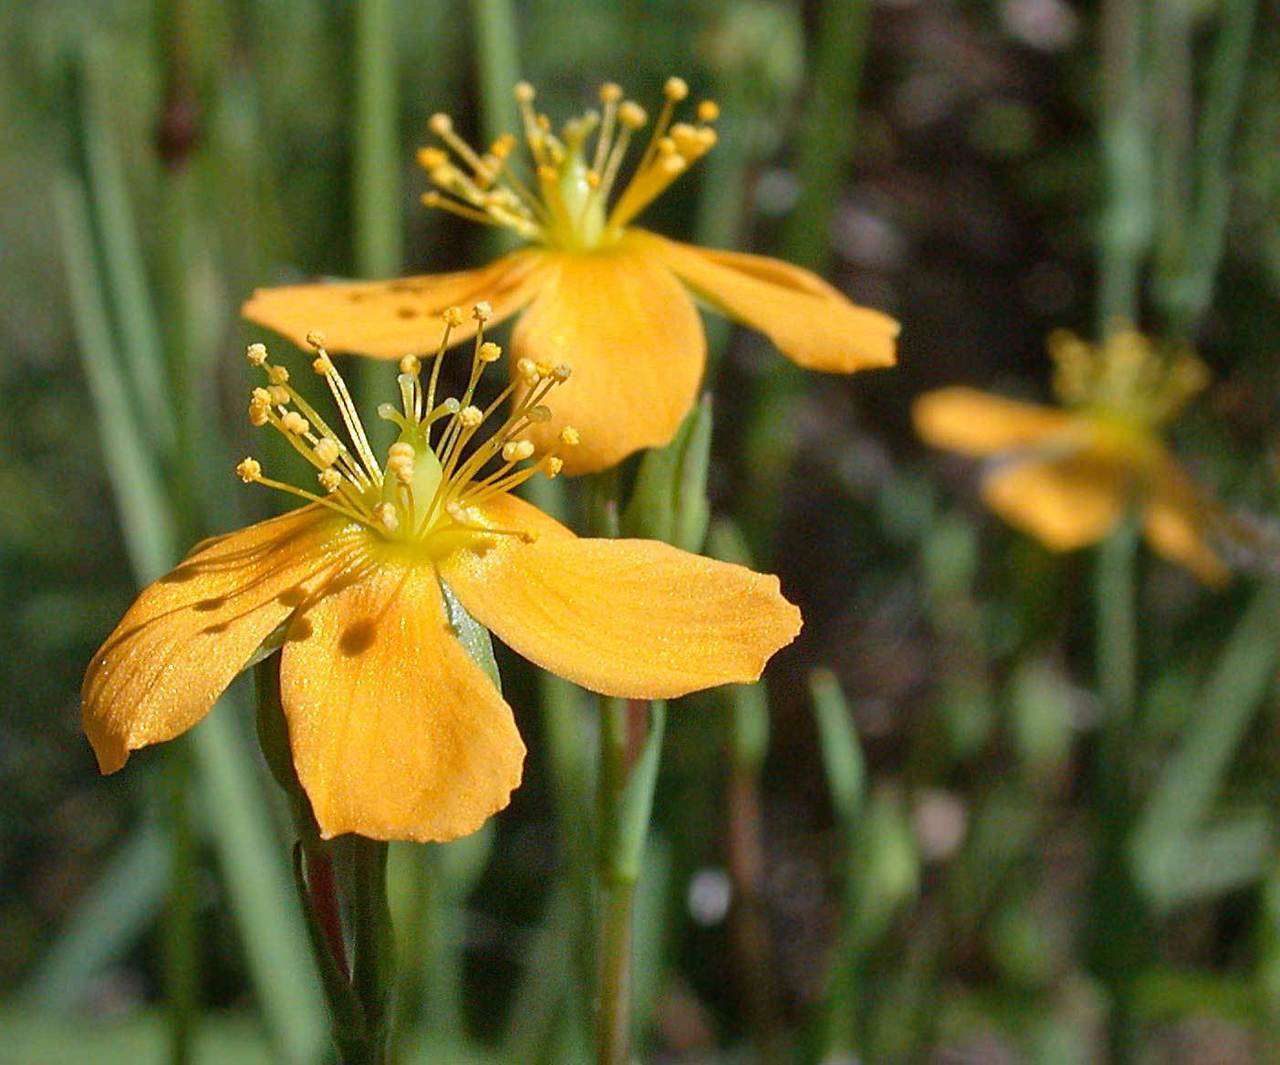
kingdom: Plantae
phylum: Tracheophyta
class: Magnoliopsida
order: Malpighiales
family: Hypericaceae
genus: Hypericum
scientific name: Hypericum gramineum
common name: Grassy st. johnswort
